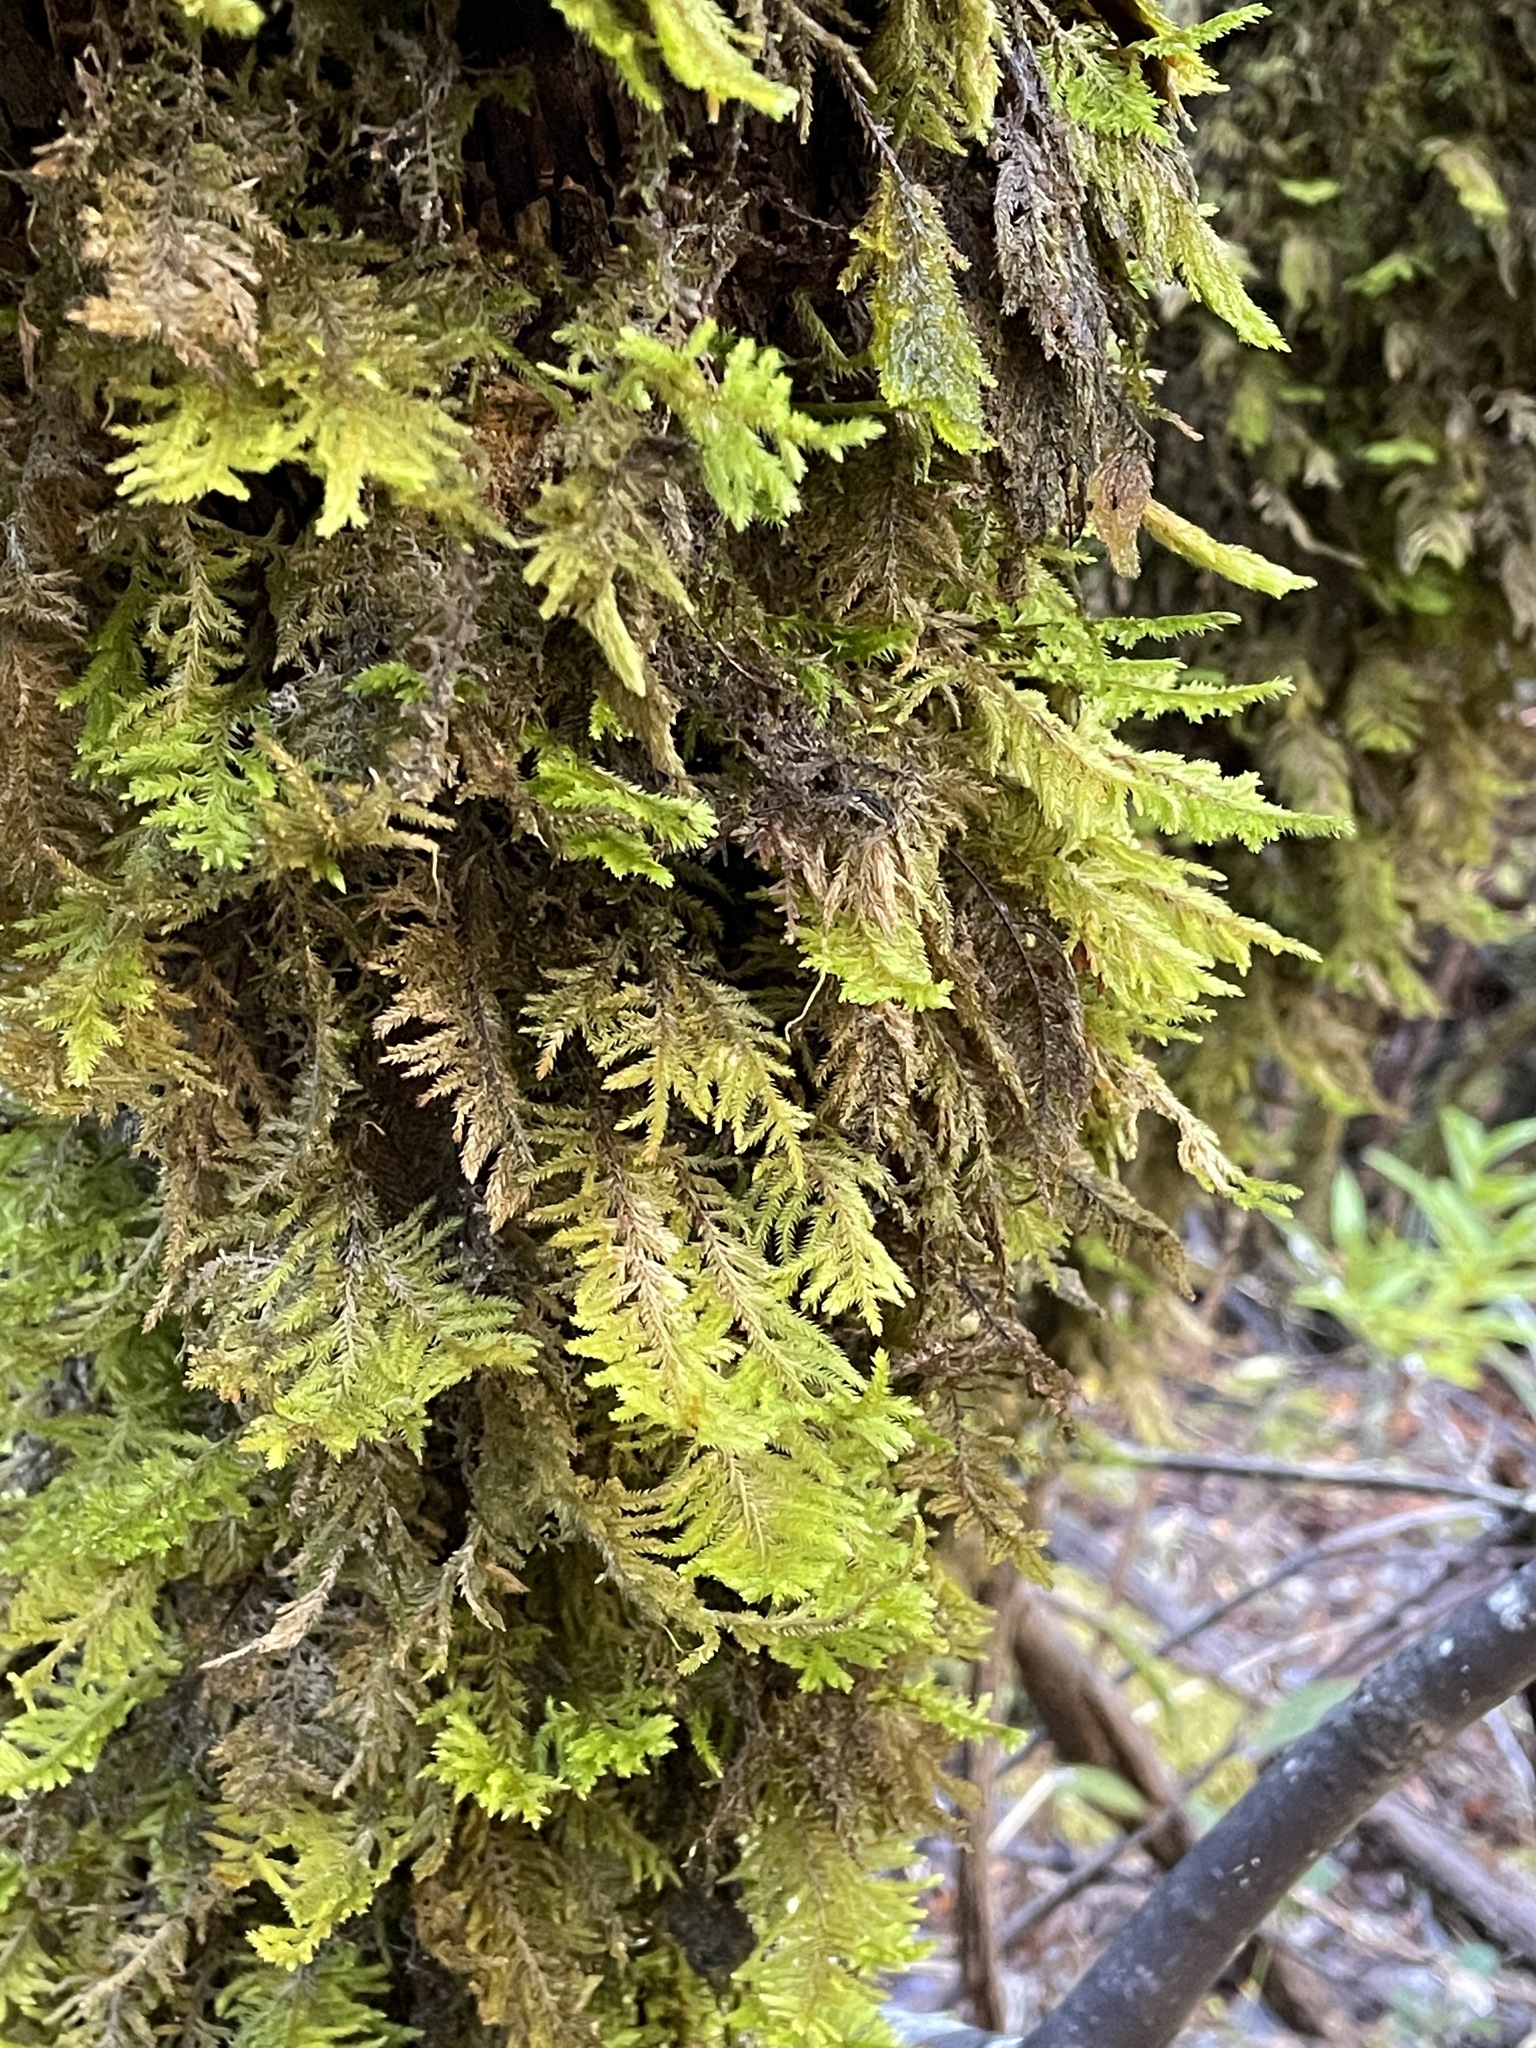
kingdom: Plantae
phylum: Bryophyta
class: Bryopsida
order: Hypnales
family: Cryphaeaceae
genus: Dendroalsia
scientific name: Dendroalsia abietina
